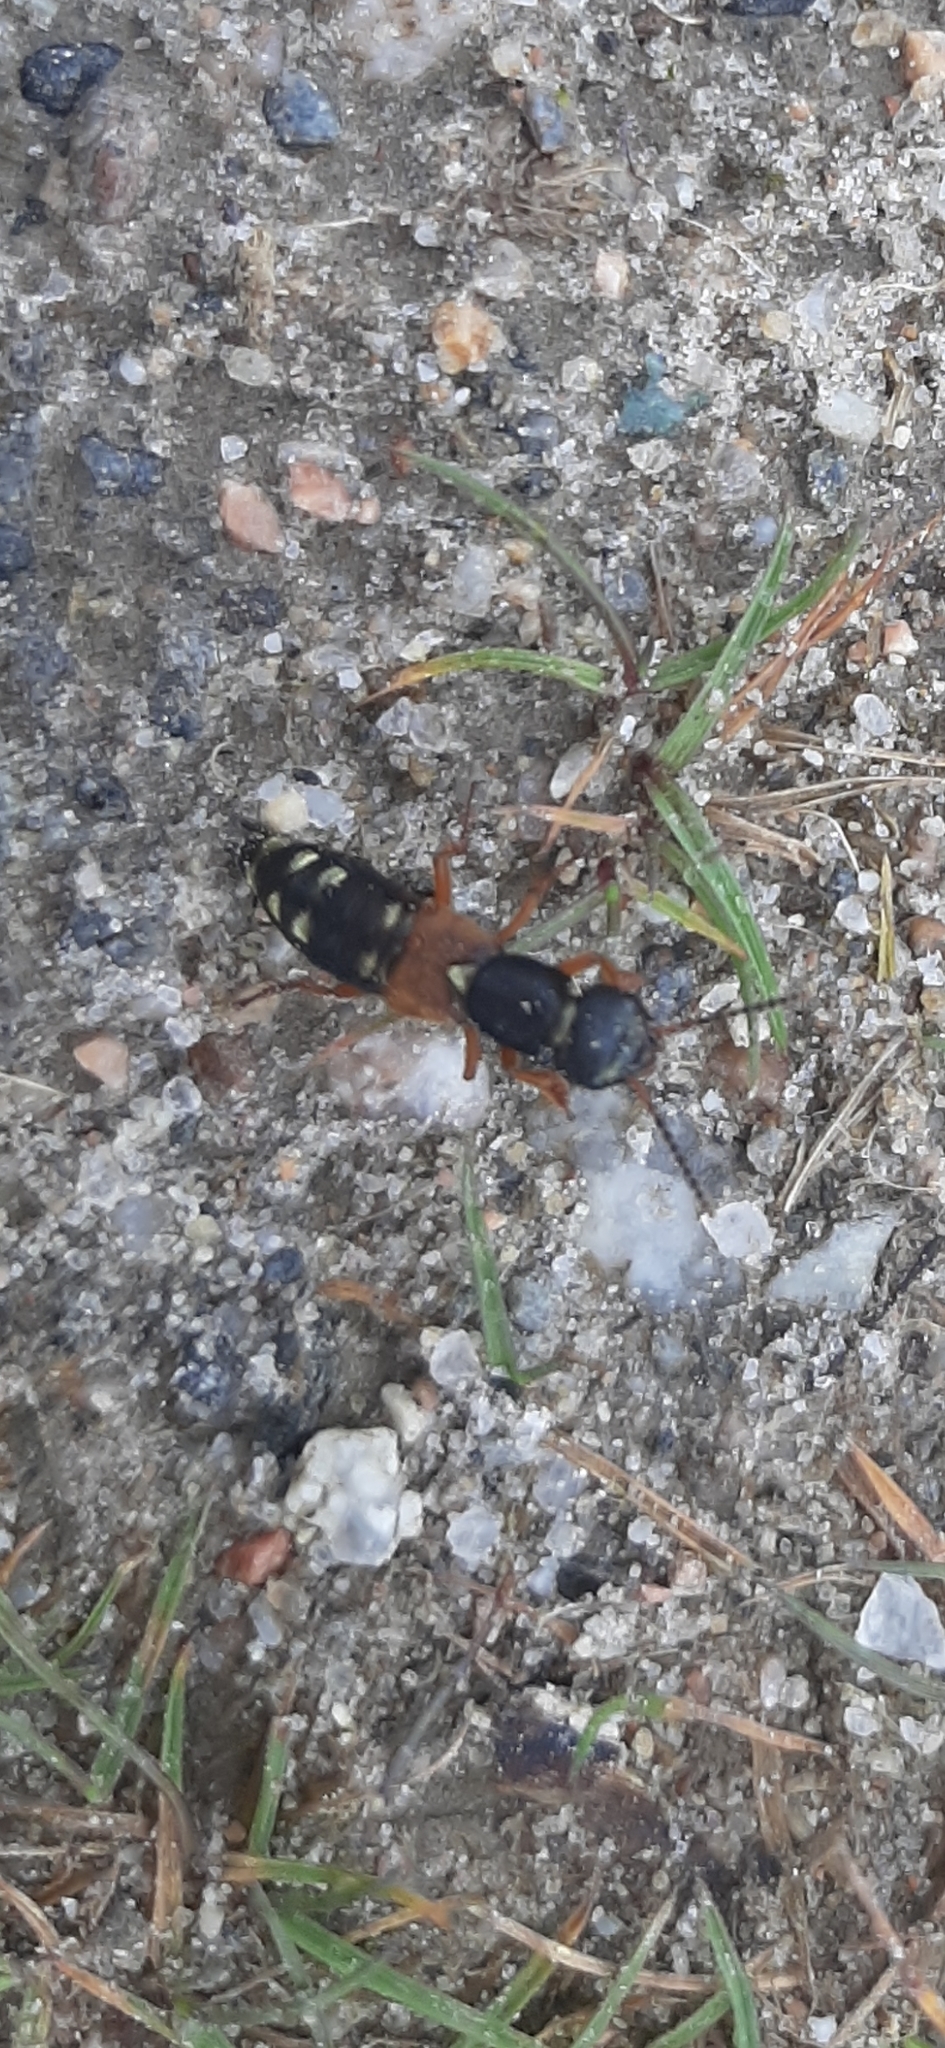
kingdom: Animalia
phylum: Arthropoda
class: Insecta
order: Coleoptera
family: Staphylinidae
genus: Staphylinus
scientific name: Staphylinus erythropterus
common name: Staph beetle
